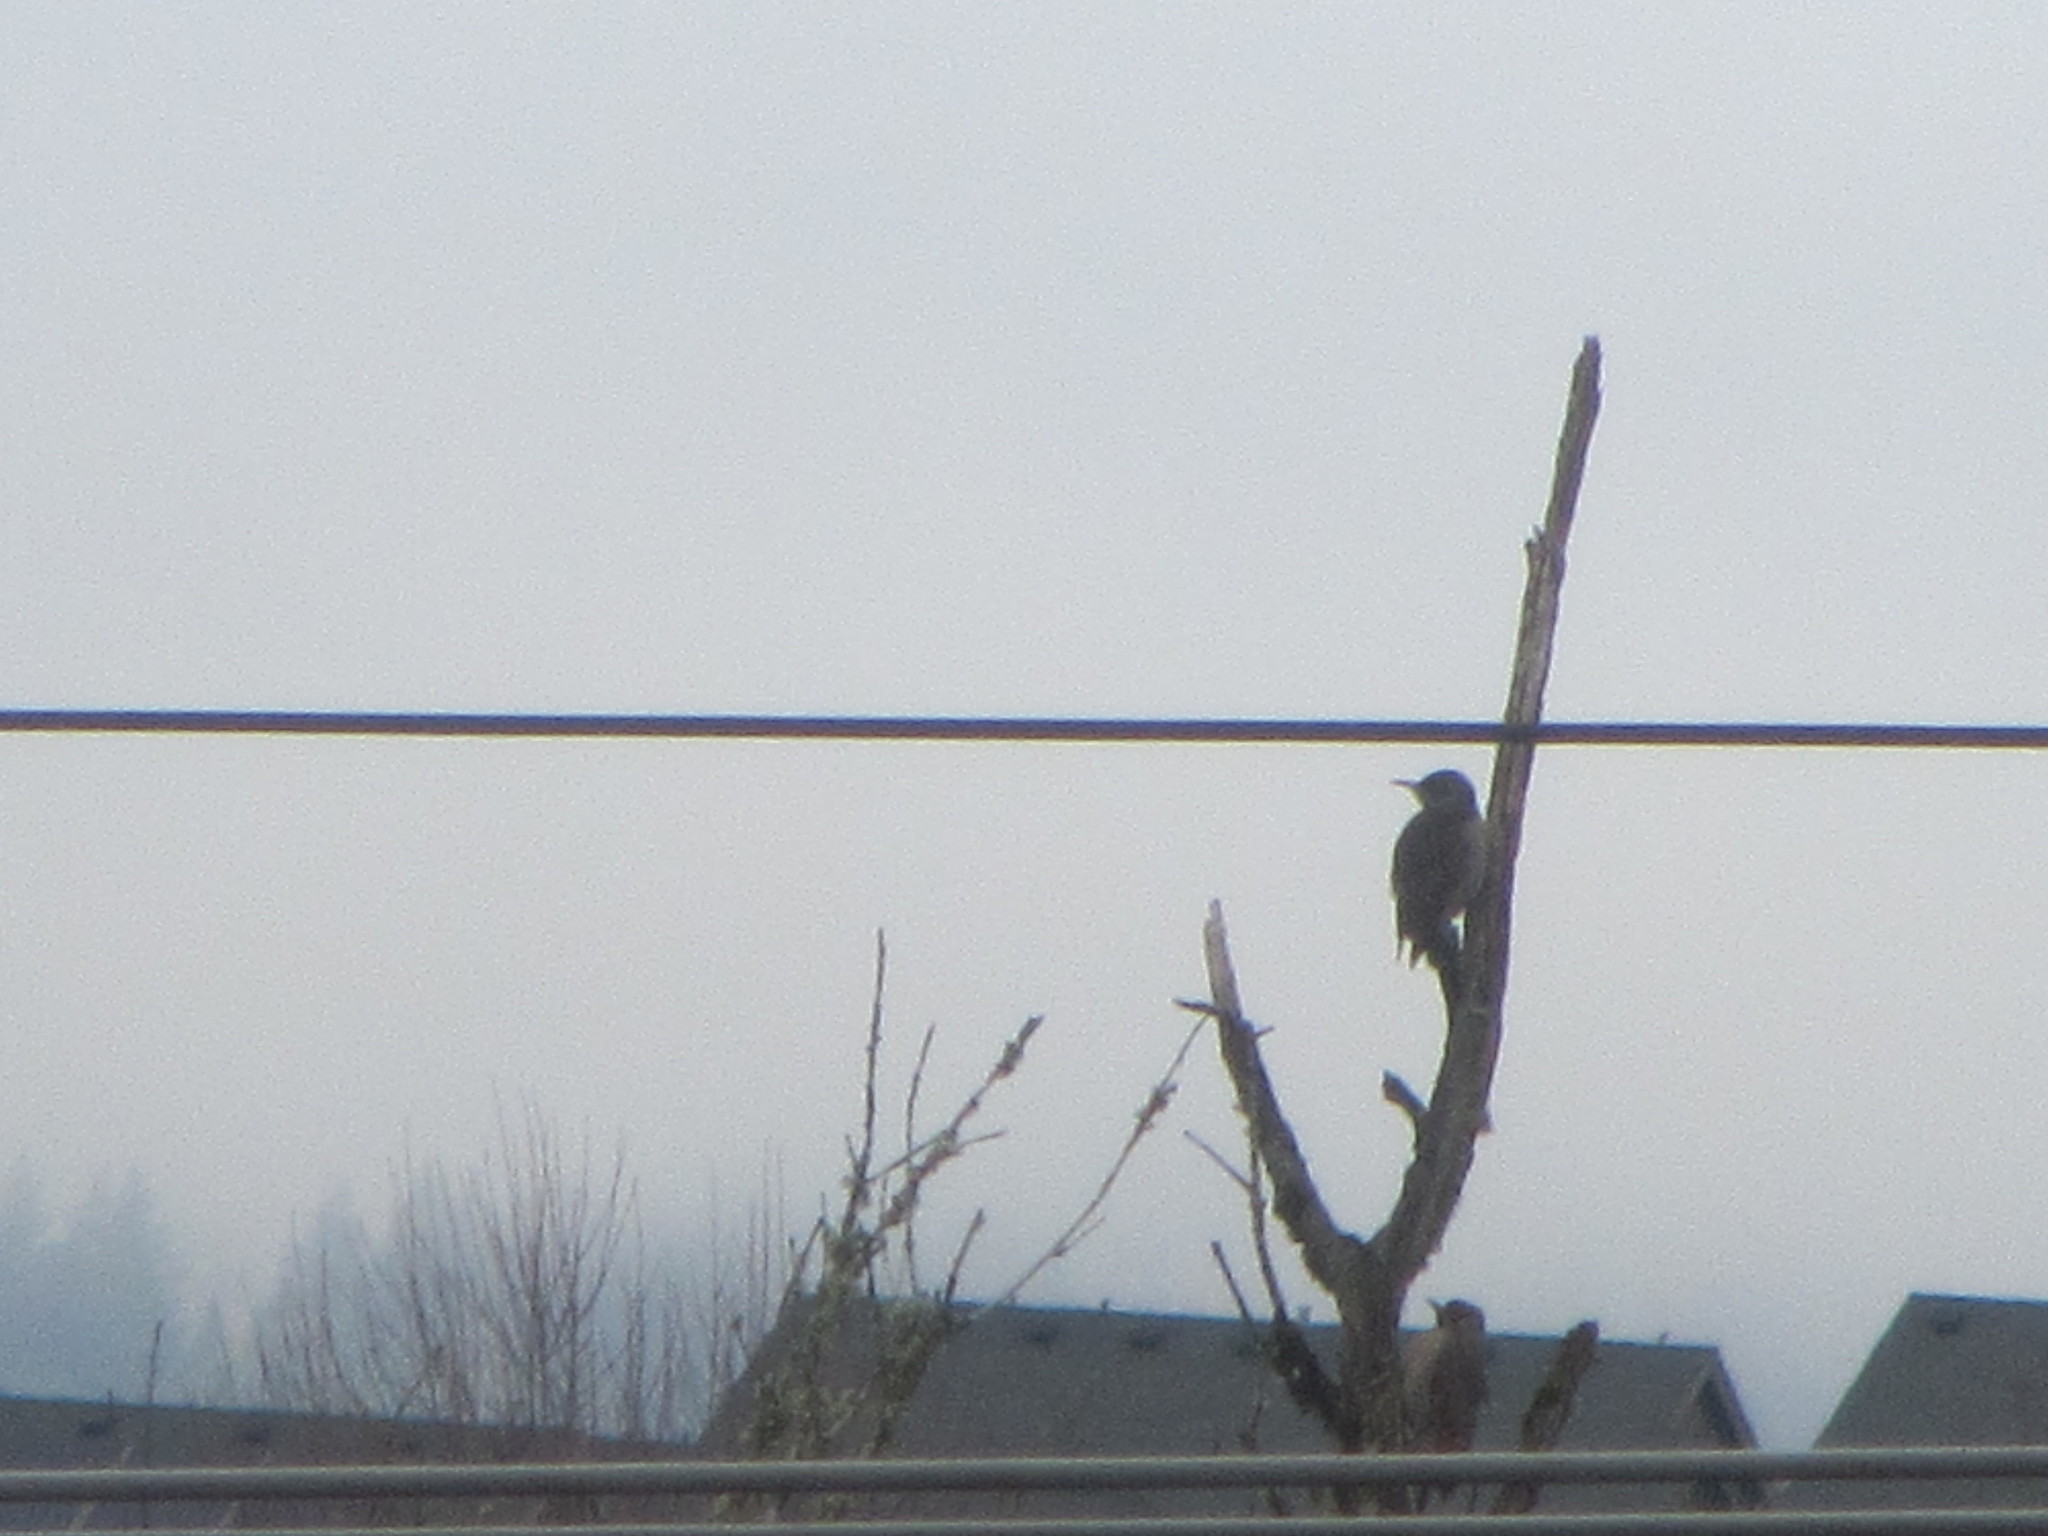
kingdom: Animalia
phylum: Chordata
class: Aves
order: Piciformes
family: Picidae
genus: Colaptes
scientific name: Colaptes auratus
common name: Northern flicker
